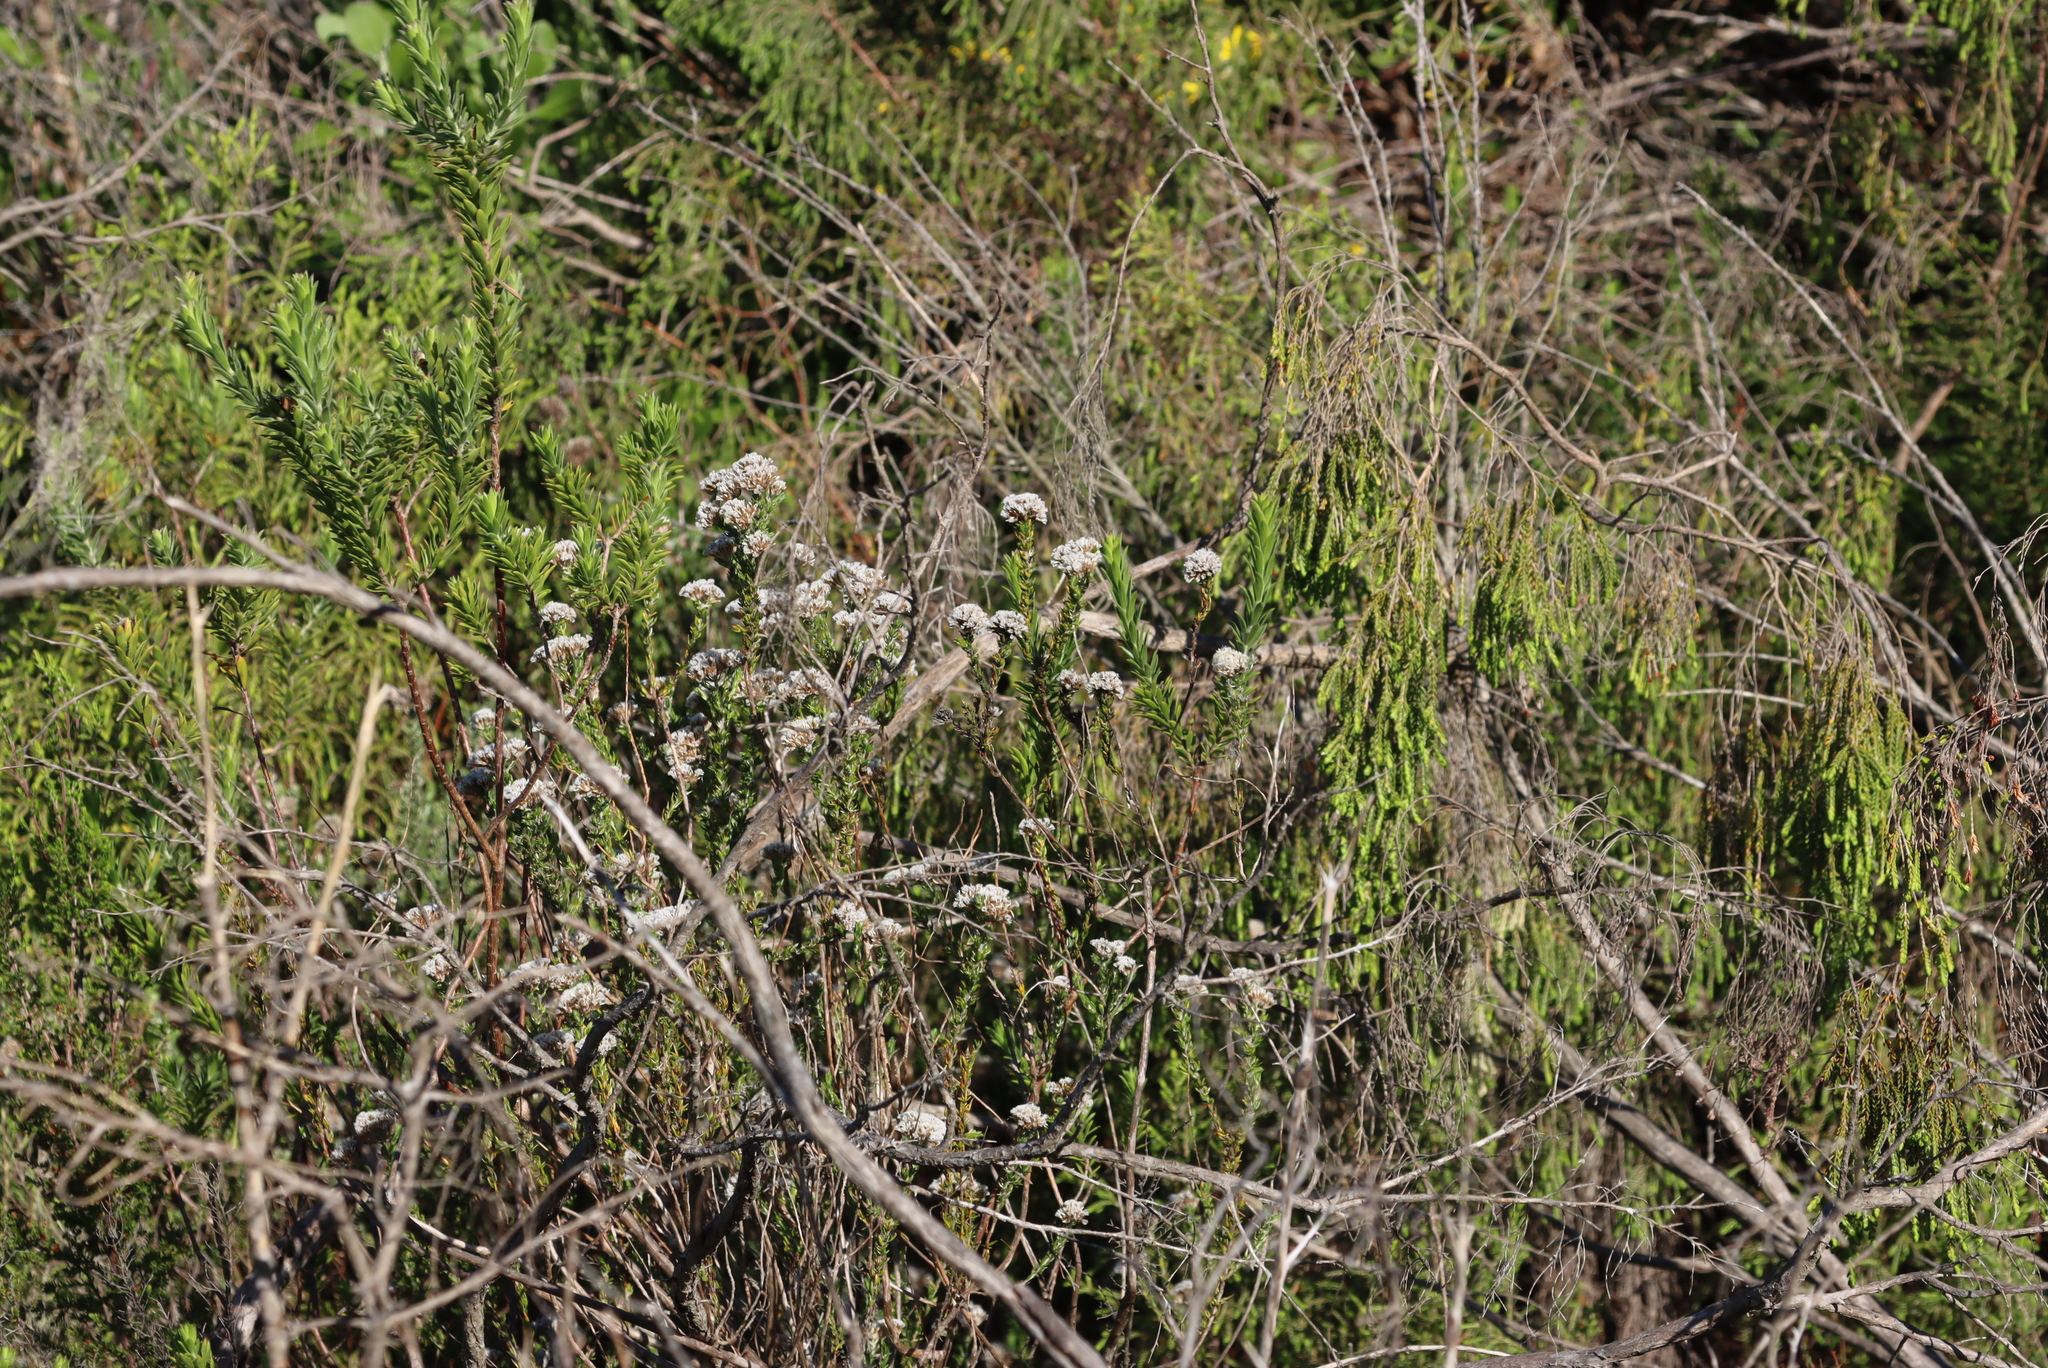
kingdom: Plantae
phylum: Tracheophyta
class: Magnoliopsida
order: Asterales
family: Asteraceae
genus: Metalasia
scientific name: Metalasia pungens
